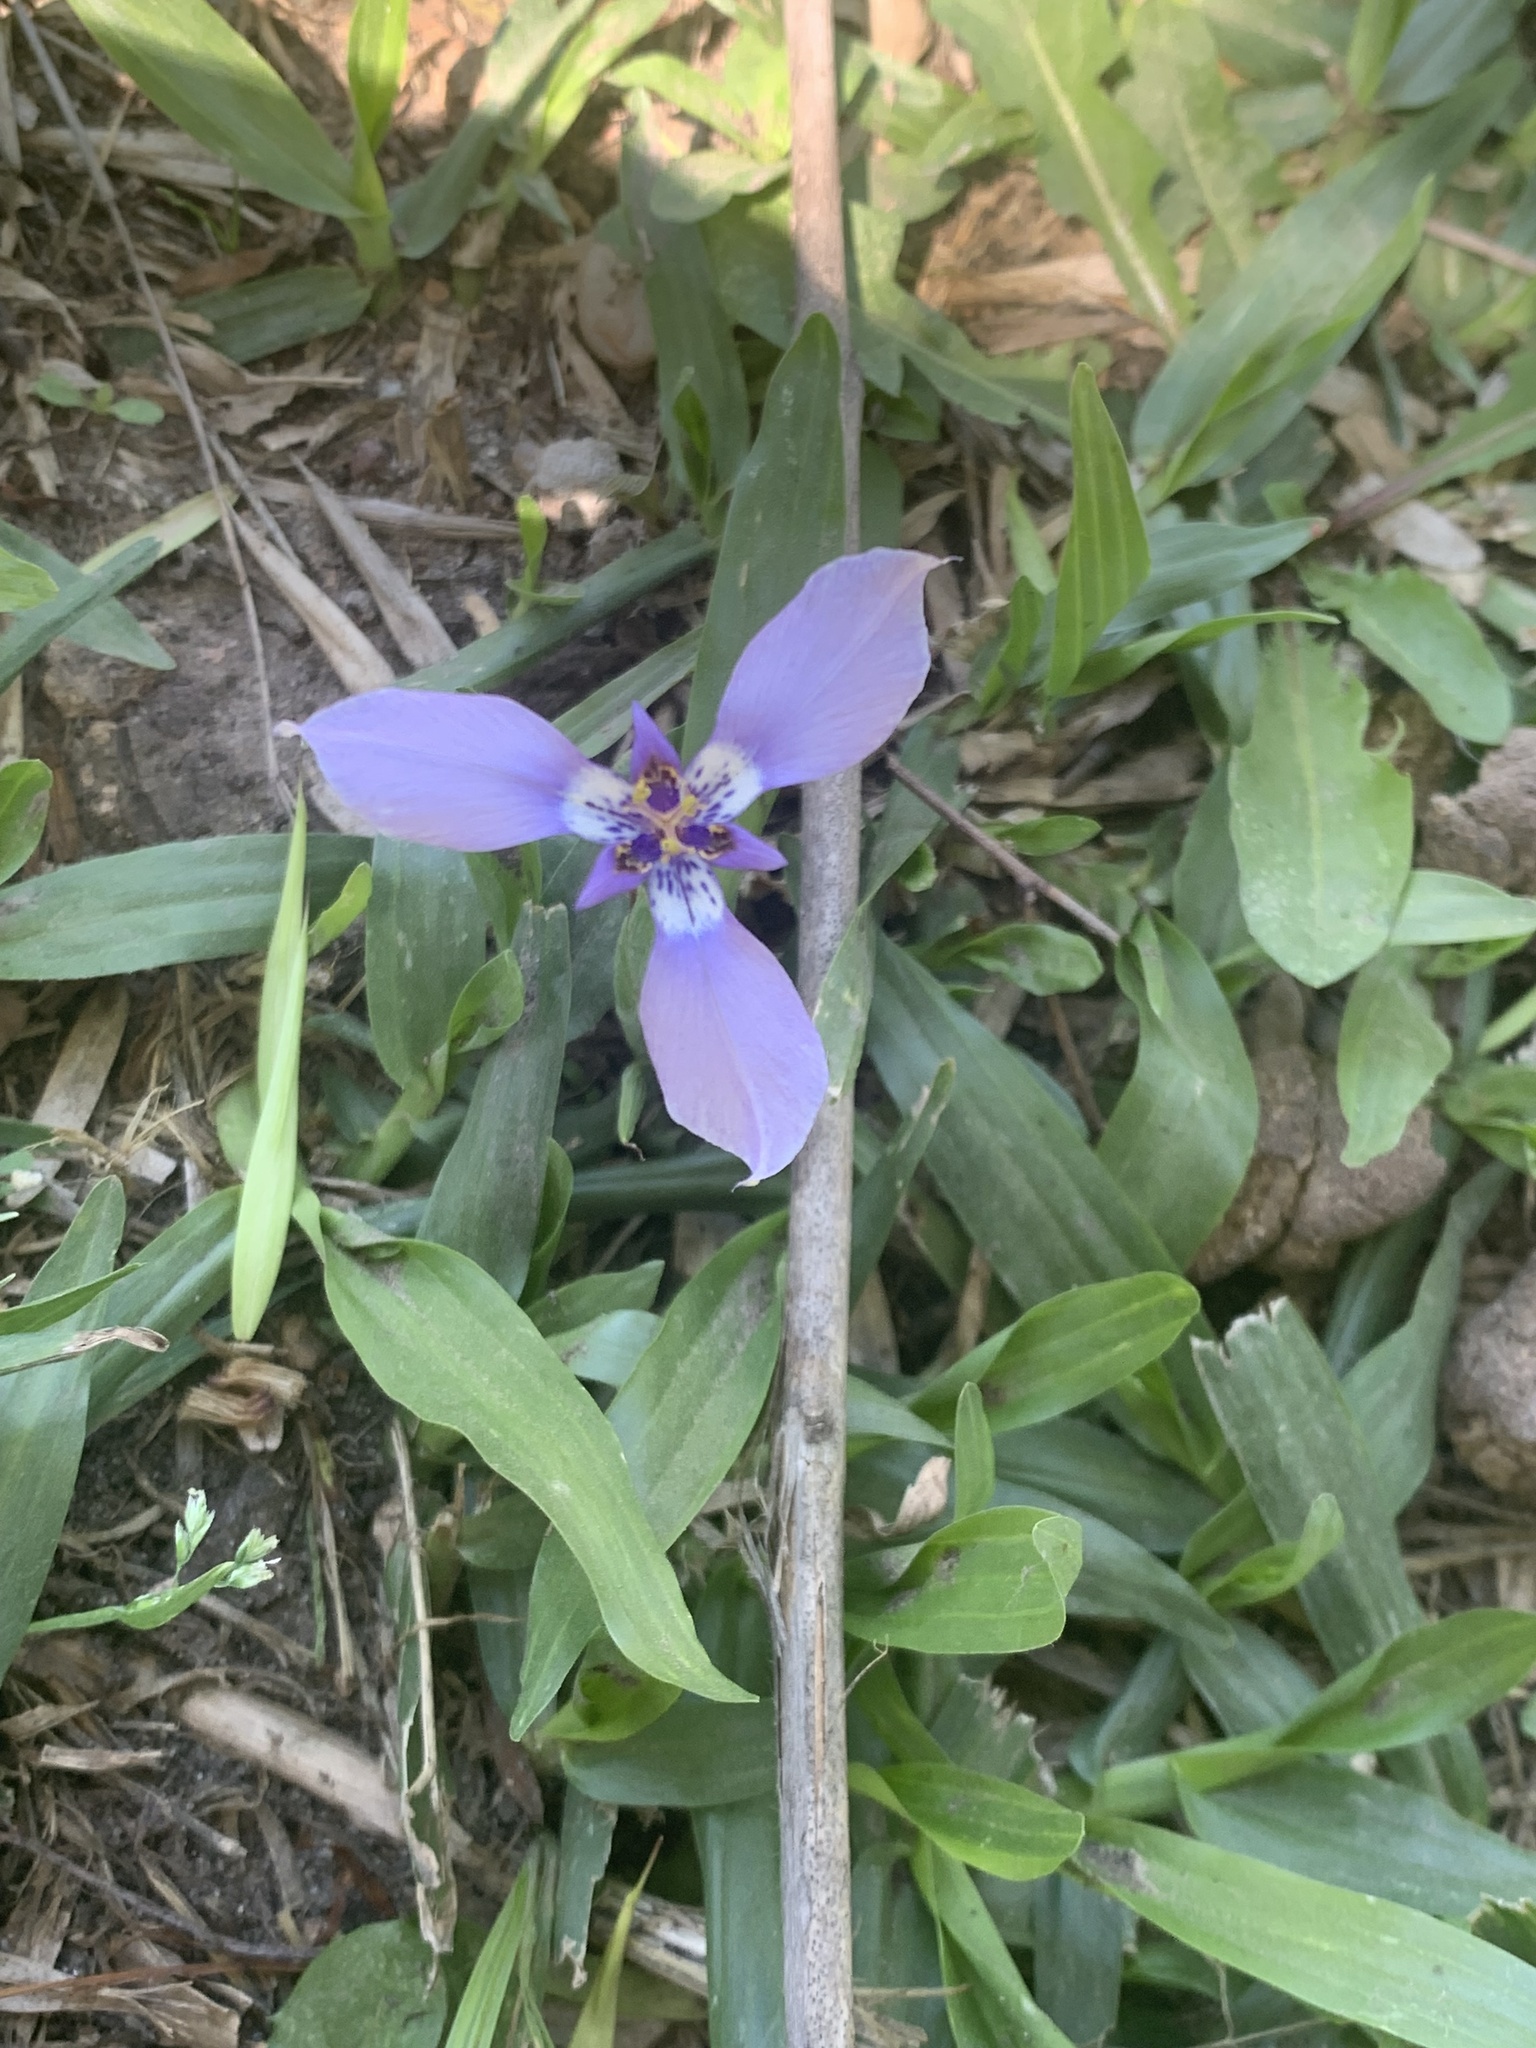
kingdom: Plantae
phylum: Tracheophyta
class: Liliopsida
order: Asparagales
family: Iridaceae
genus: Herbertia
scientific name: Herbertia lahue
